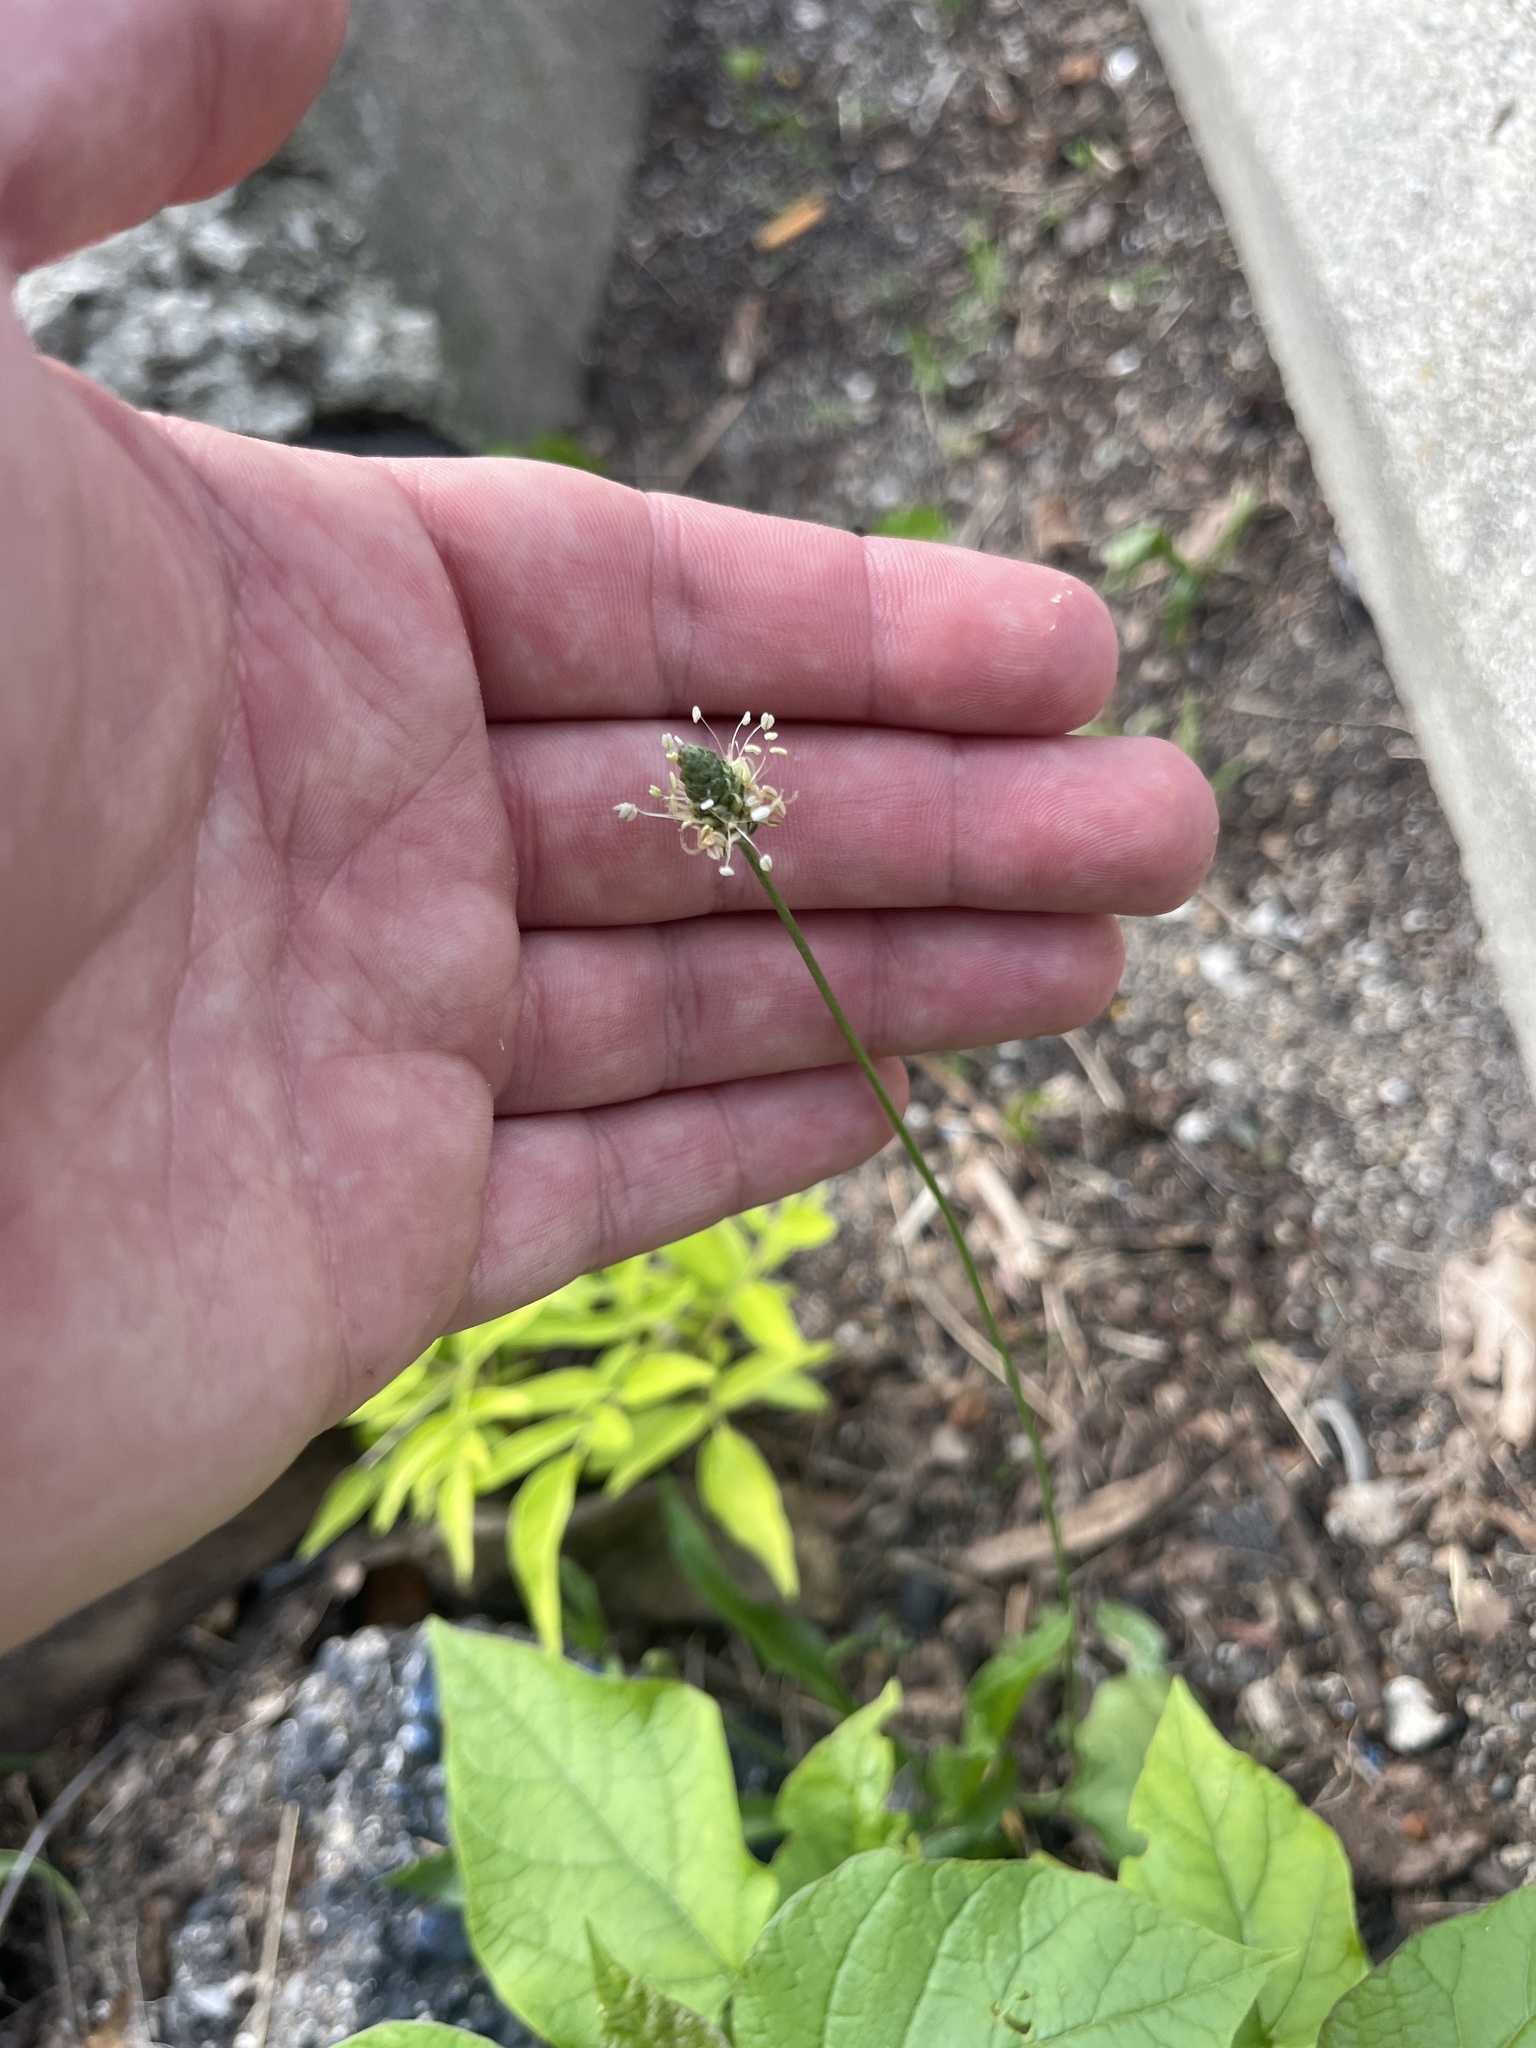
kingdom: Plantae
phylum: Tracheophyta
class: Magnoliopsida
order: Lamiales
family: Plantaginaceae
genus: Plantago
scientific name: Plantago lanceolata
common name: Ribwort plantain
